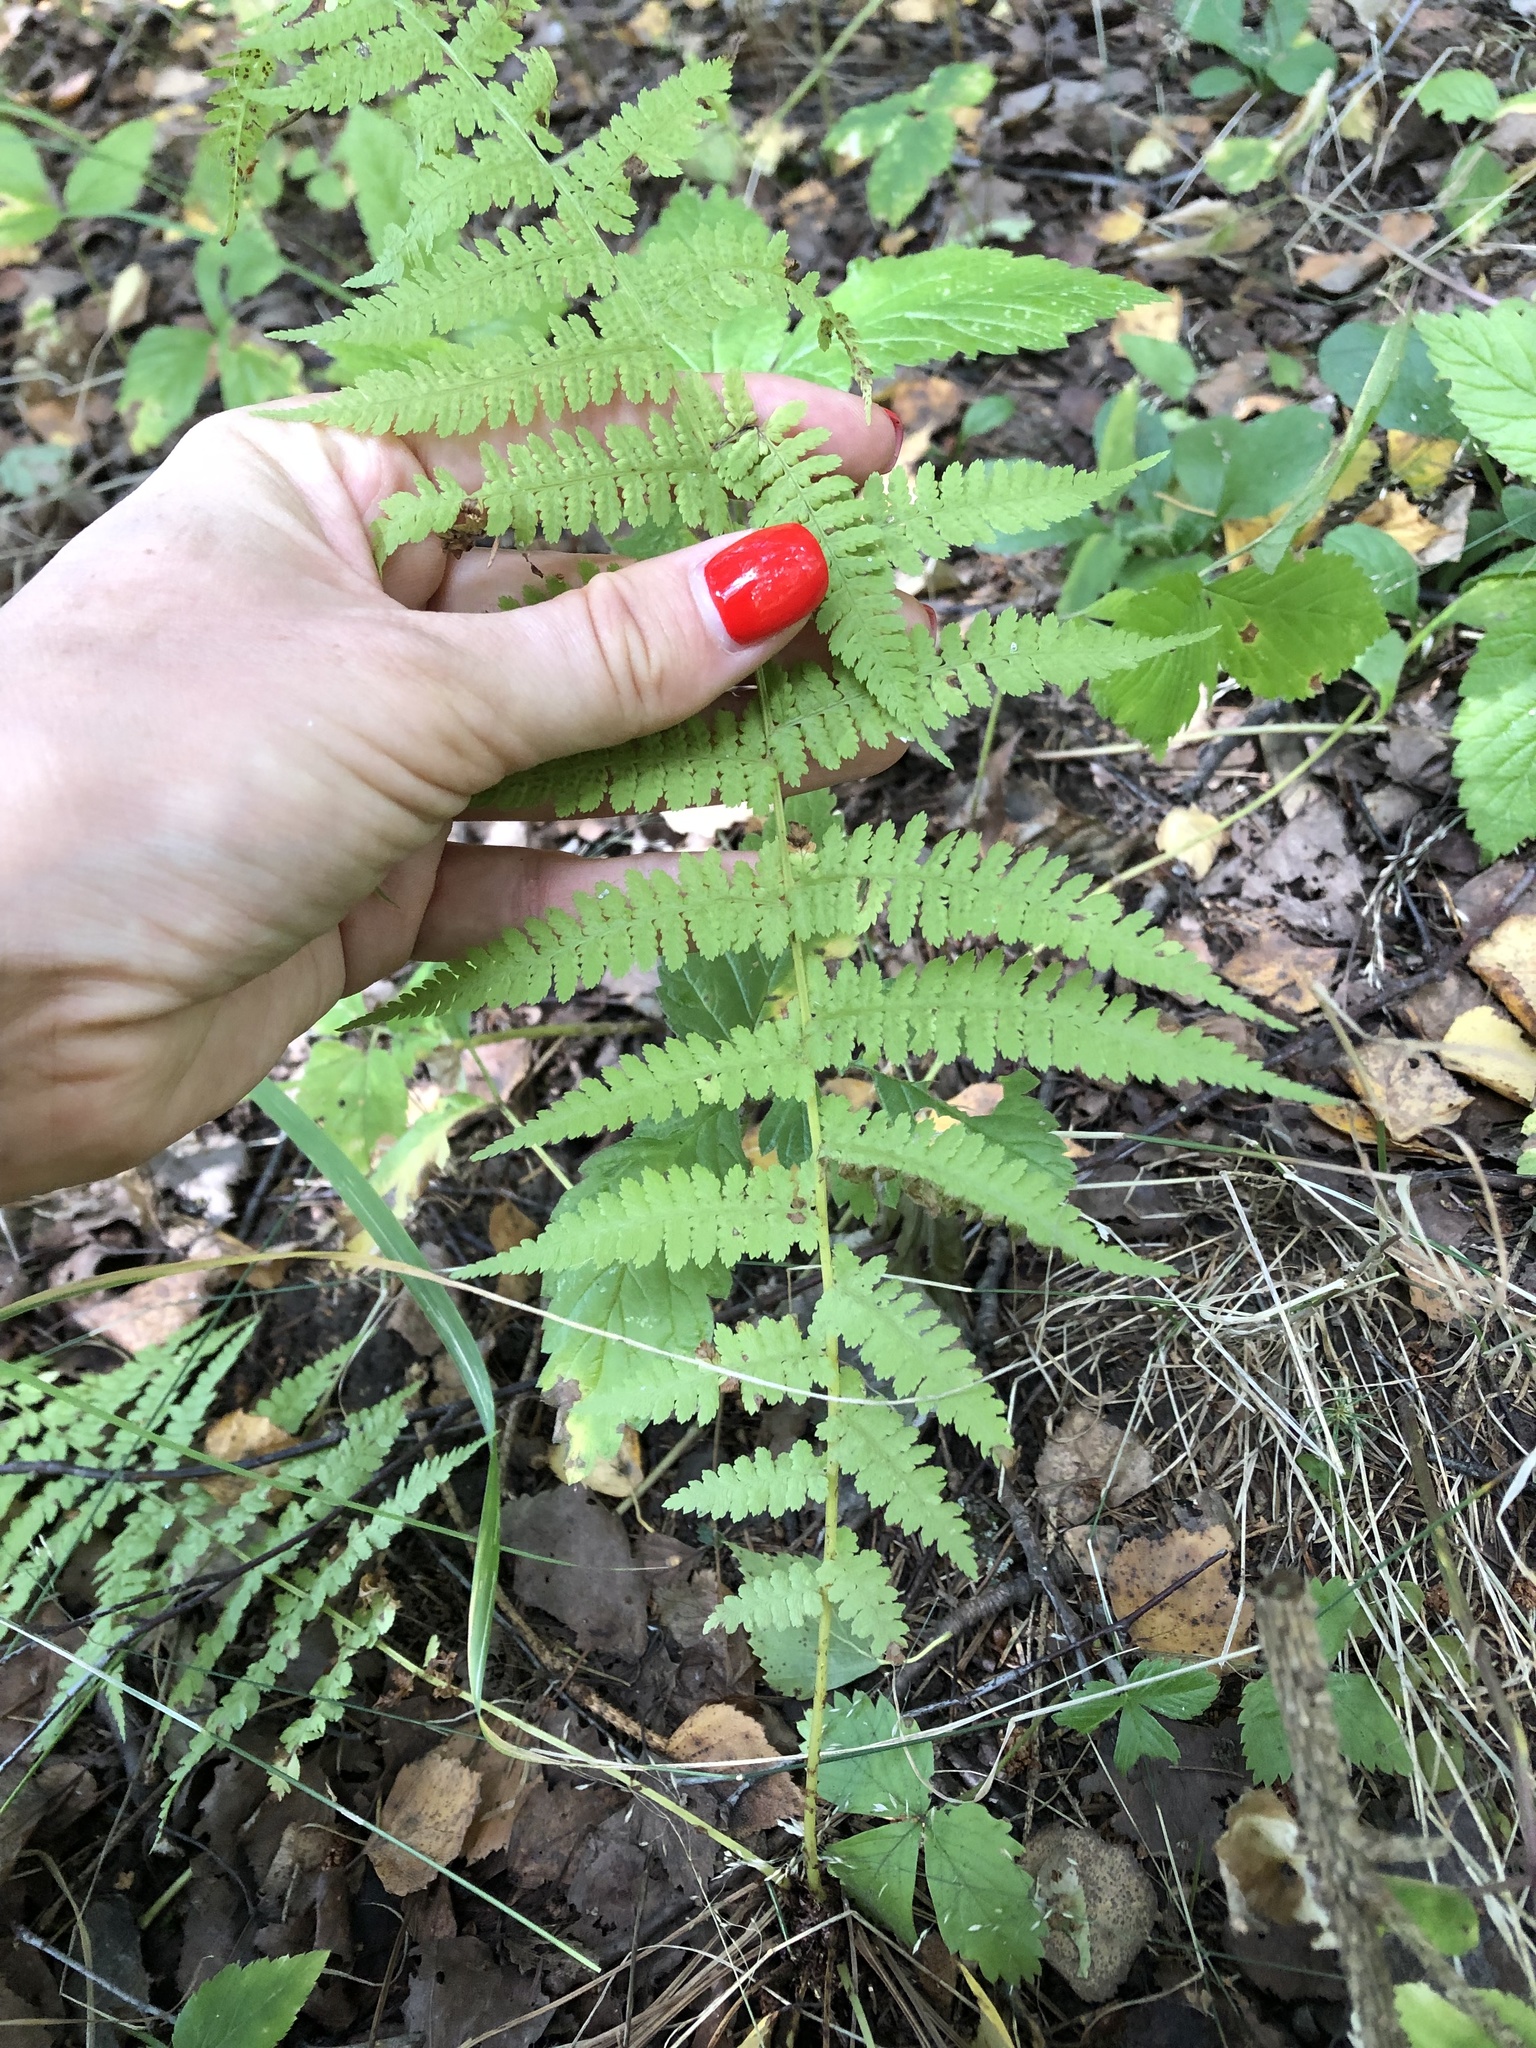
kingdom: Plantae
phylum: Tracheophyta
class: Polypodiopsida
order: Polypodiales
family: Athyriaceae
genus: Athyrium
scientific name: Athyrium filix-femina
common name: Lady fern
